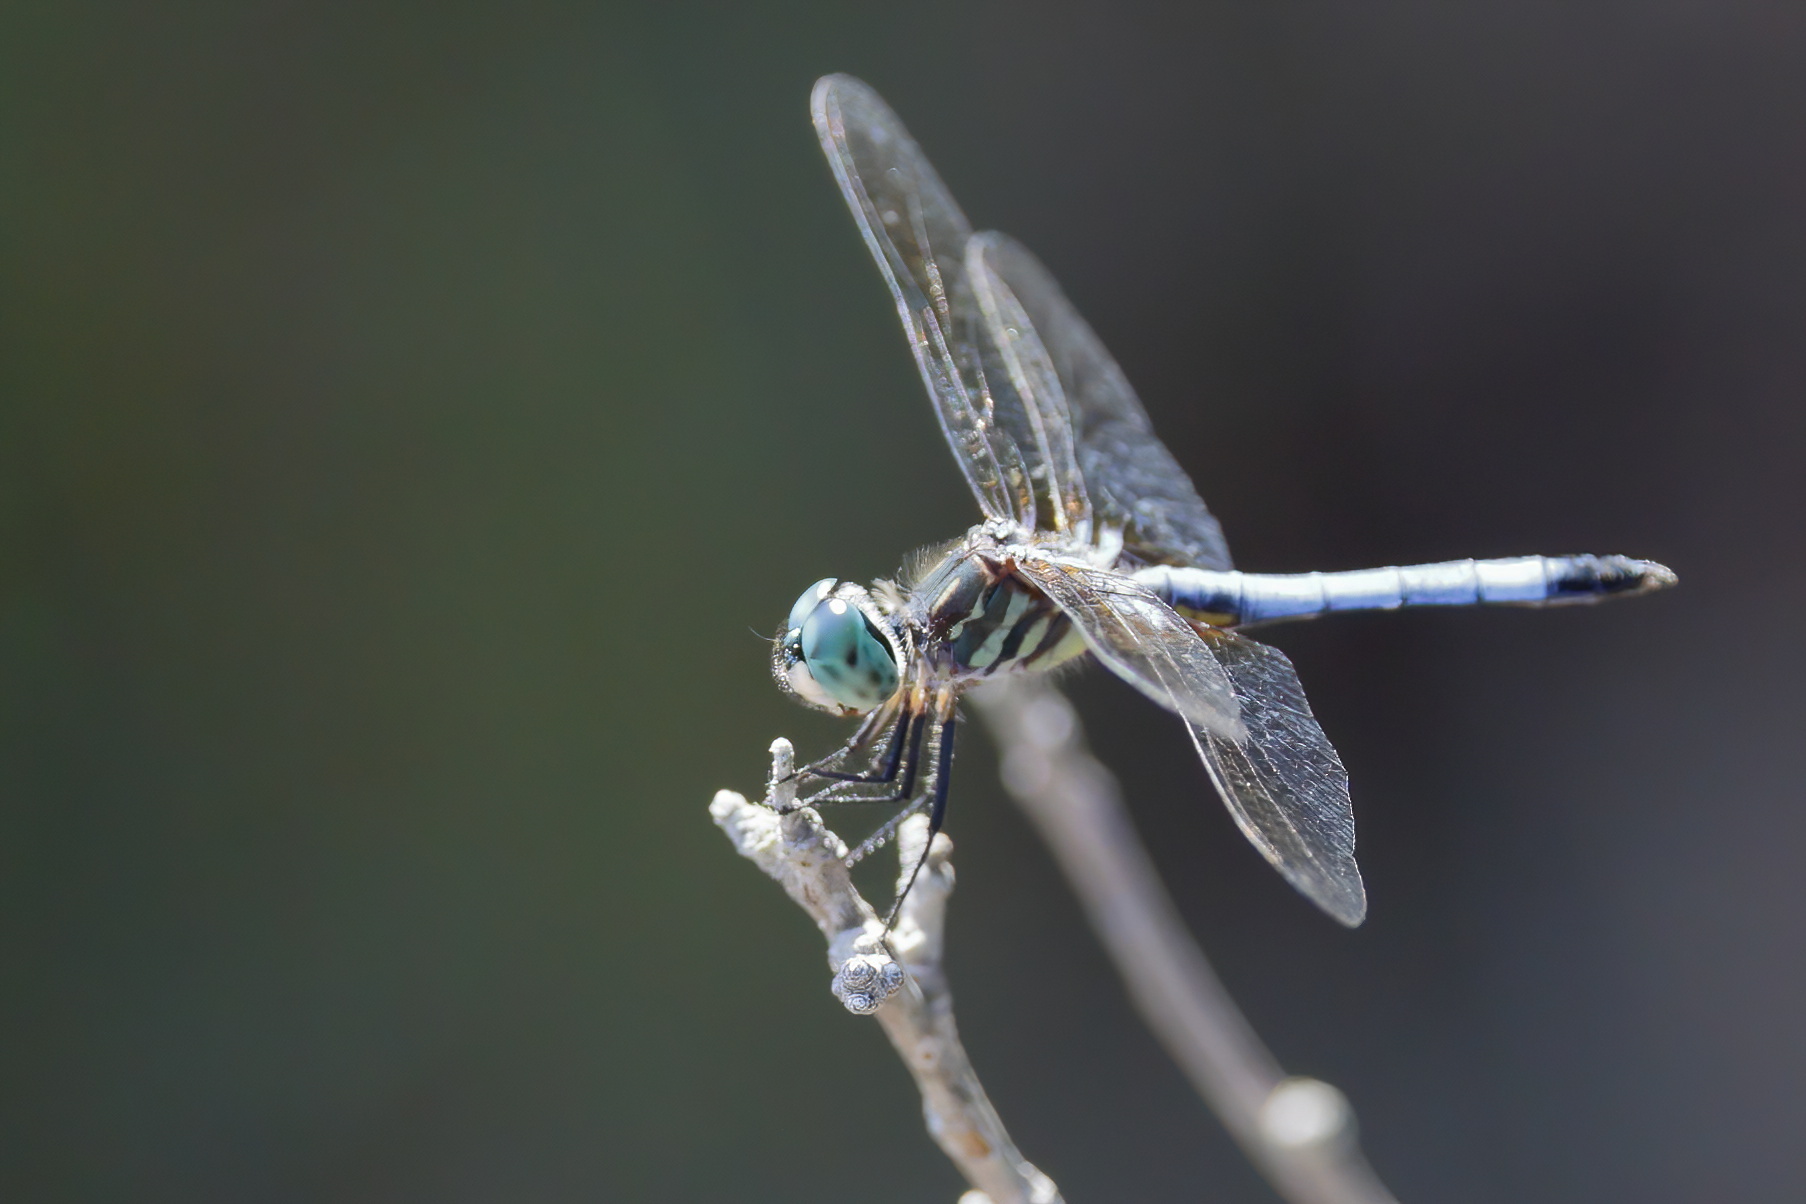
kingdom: Animalia
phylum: Arthropoda
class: Insecta
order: Odonata
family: Libellulidae
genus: Pachydiplax
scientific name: Pachydiplax longipennis
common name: Blue dasher
